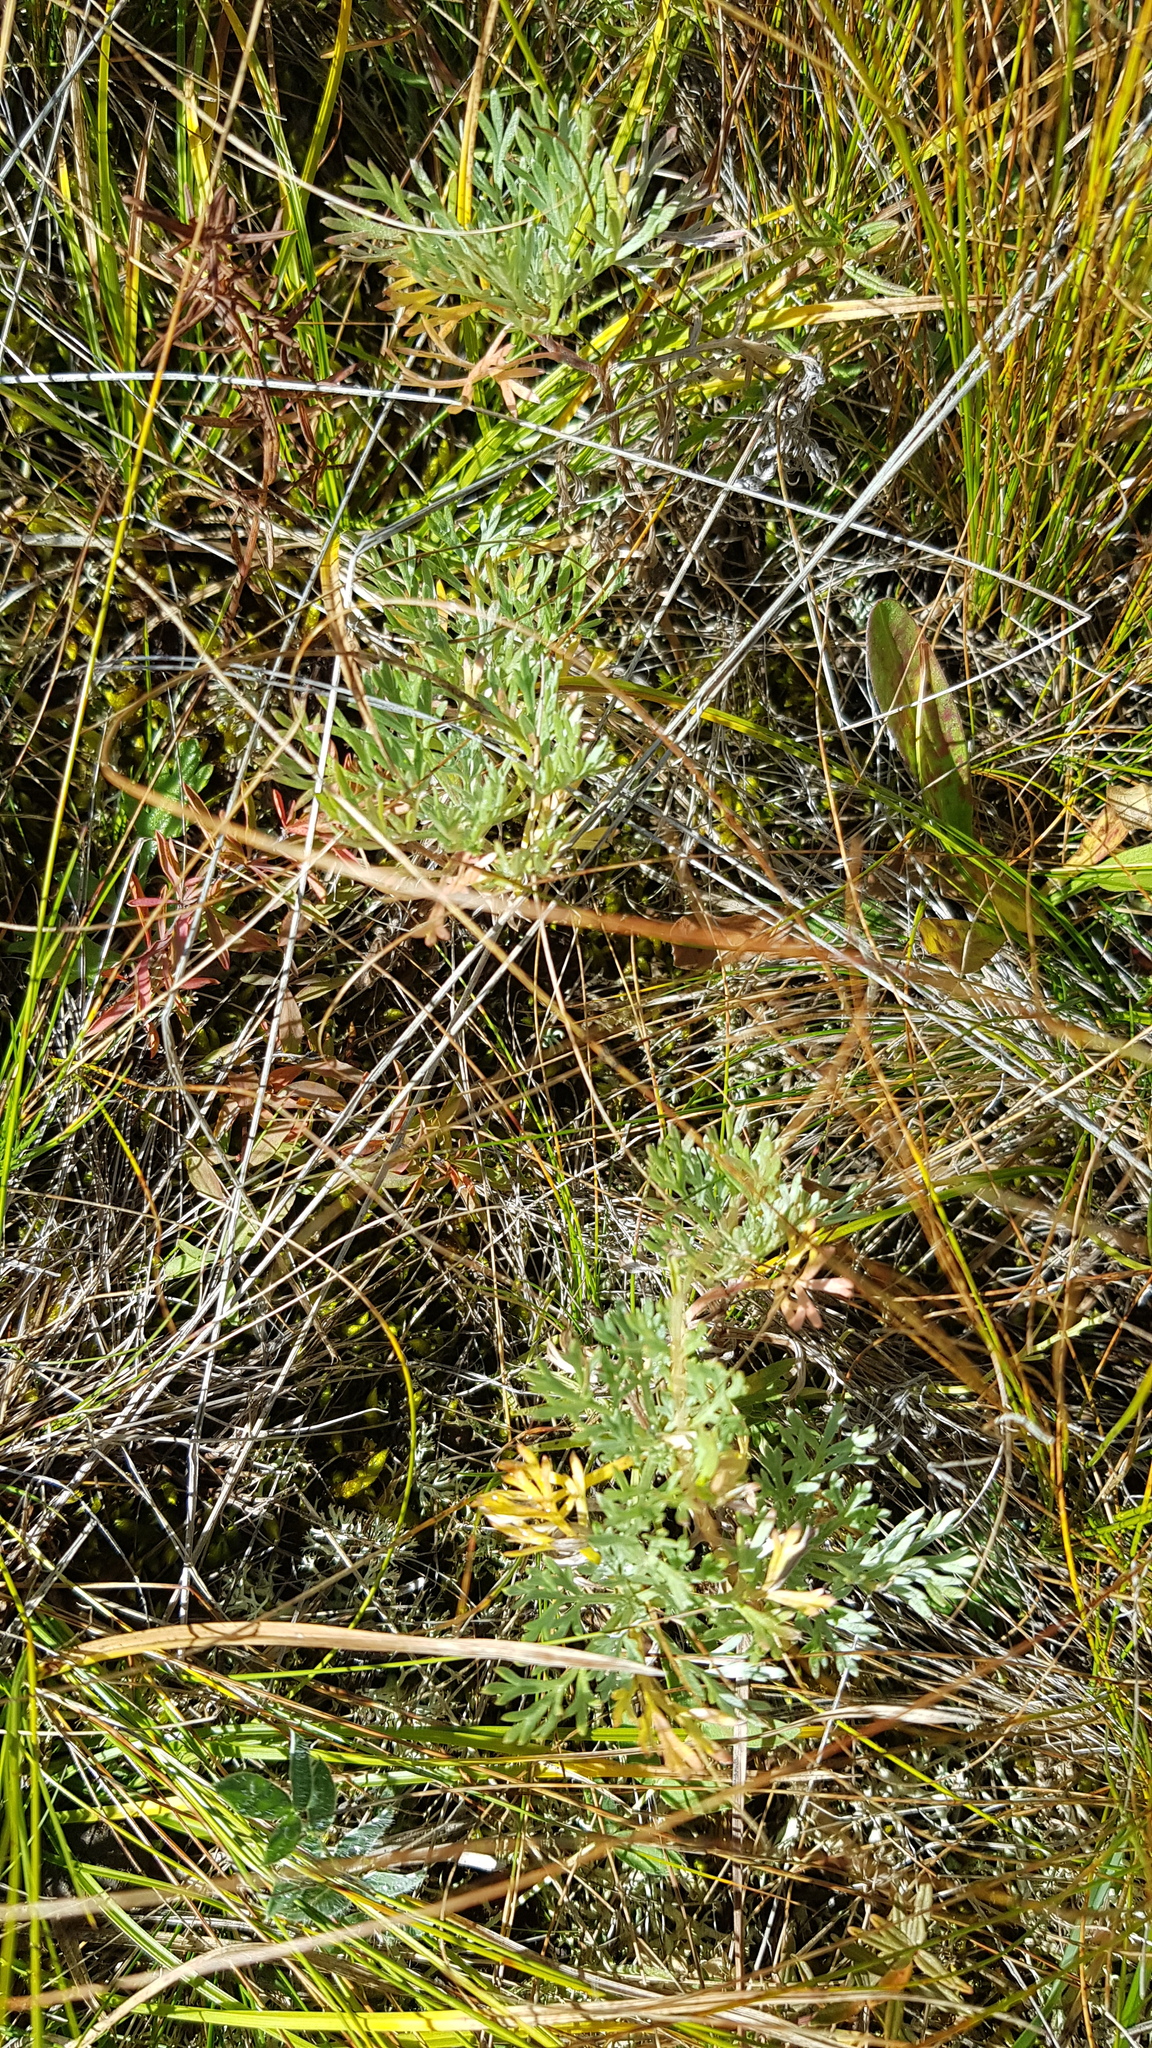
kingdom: Plantae
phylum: Tracheophyta
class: Magnoliopsida
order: Asterales
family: Asteraceae
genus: Artemisia
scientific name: Artemisia sericea
